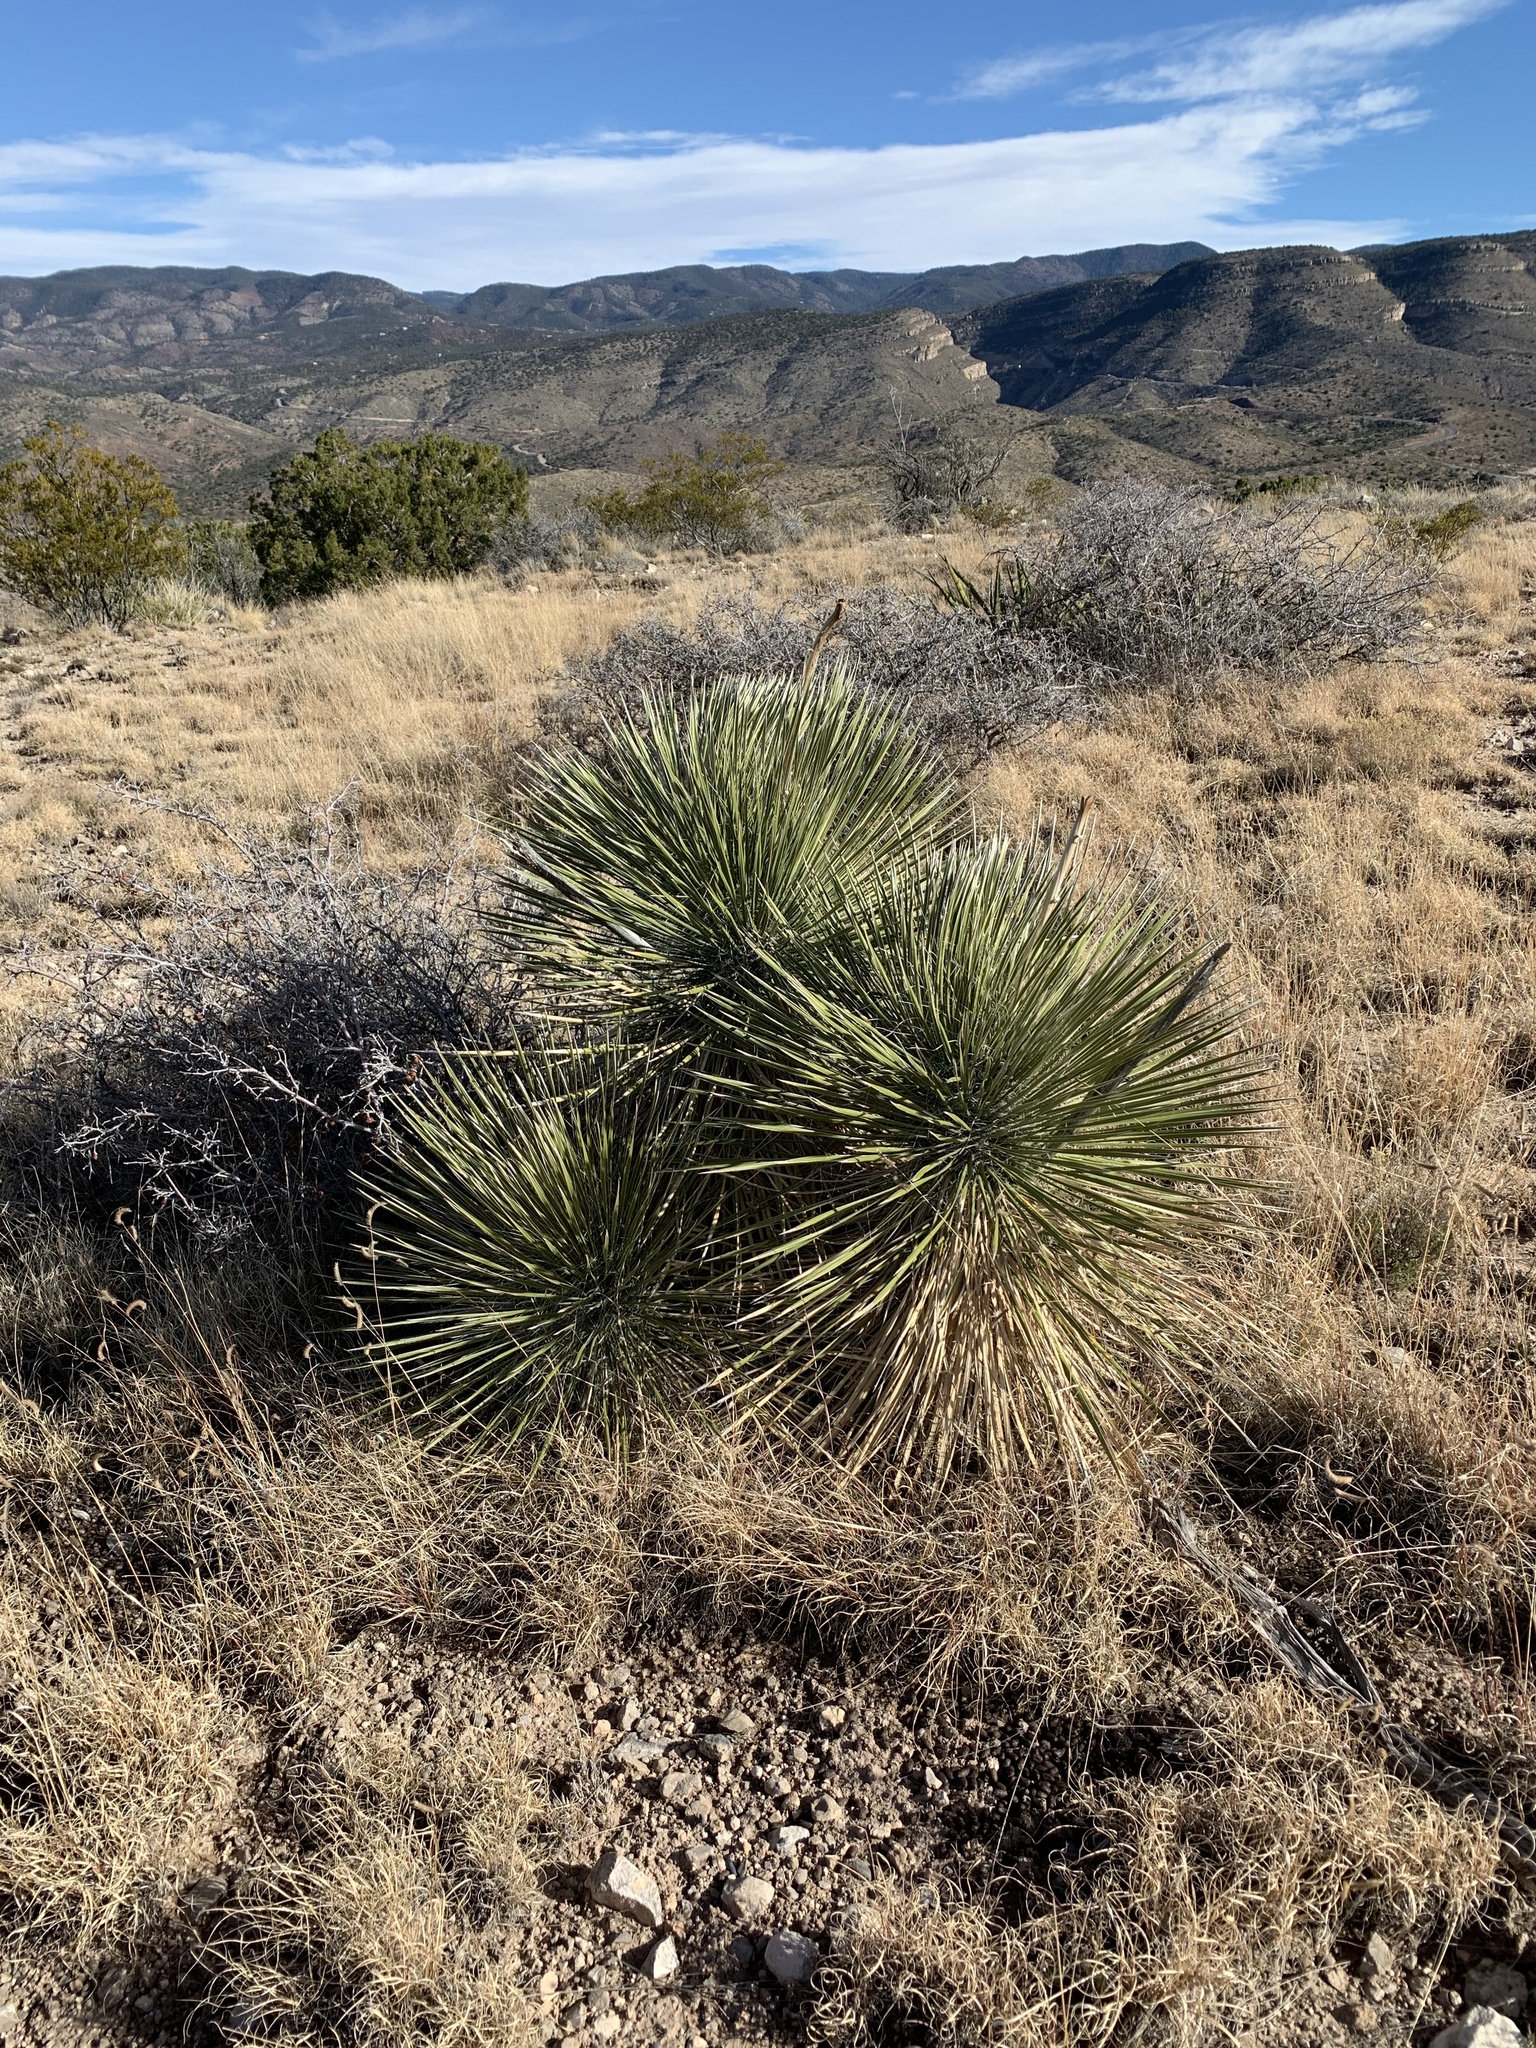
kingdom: Plantae
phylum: Tracheophyta
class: Liliopsida
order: Asparagales
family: Asparagaceae
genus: Yucca
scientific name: Yucca elata
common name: Palmella
